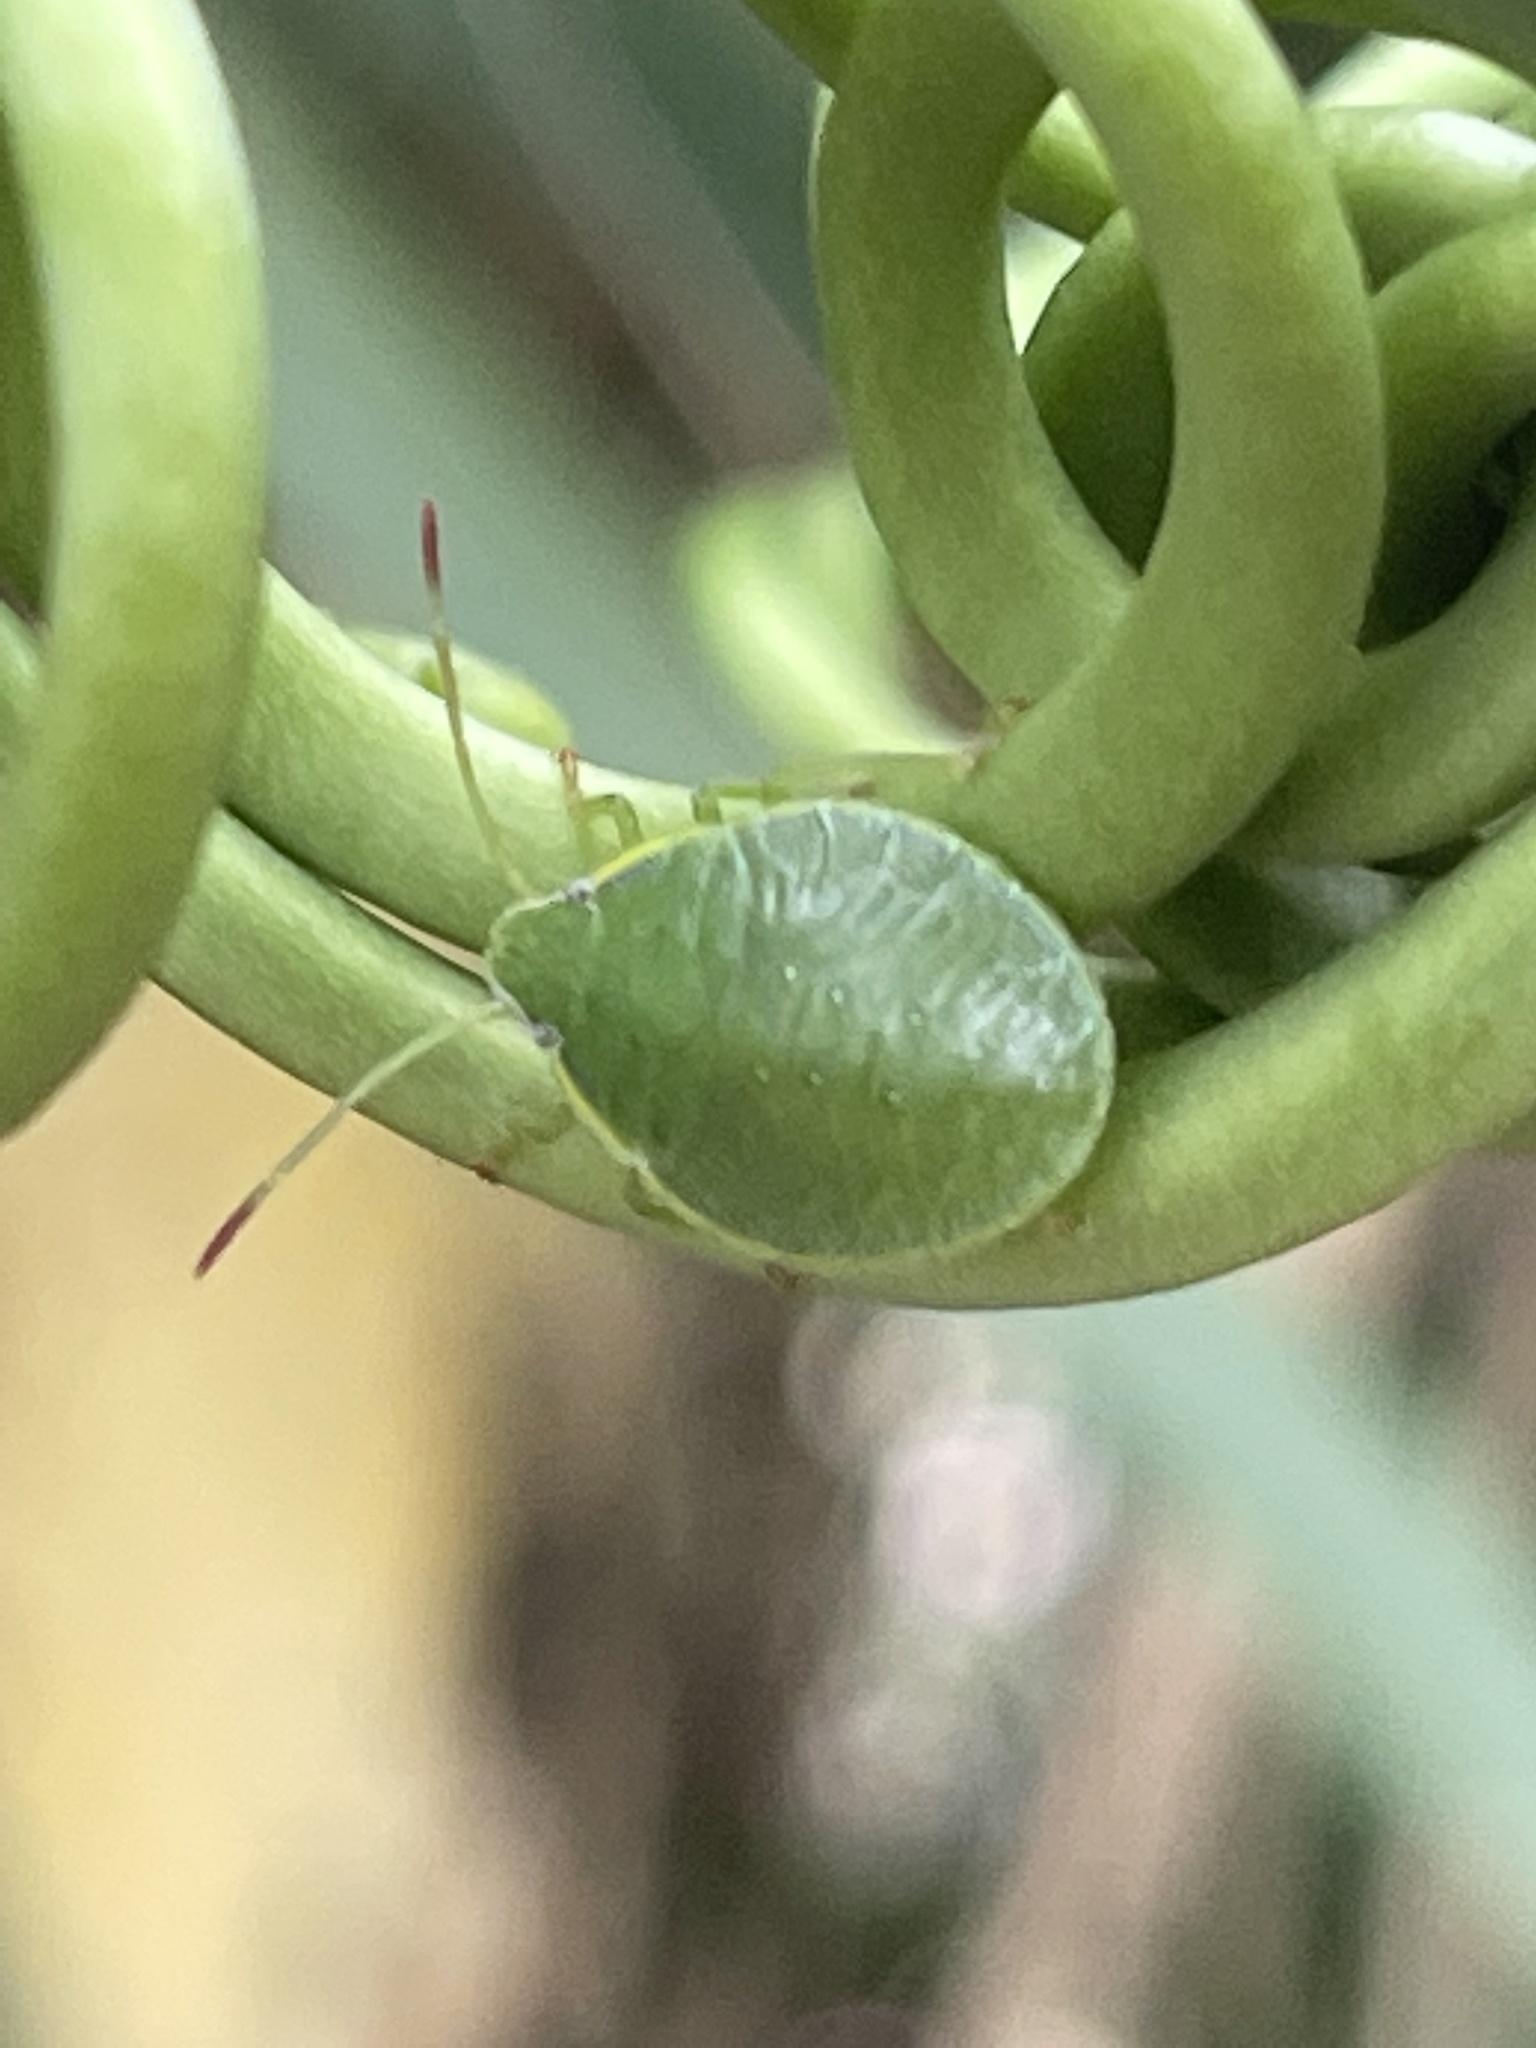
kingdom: Animalia
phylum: Arthropoda
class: Insecta
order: Hemiptera
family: Pentatomidae
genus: Loxa
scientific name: Loxa flavicollis
